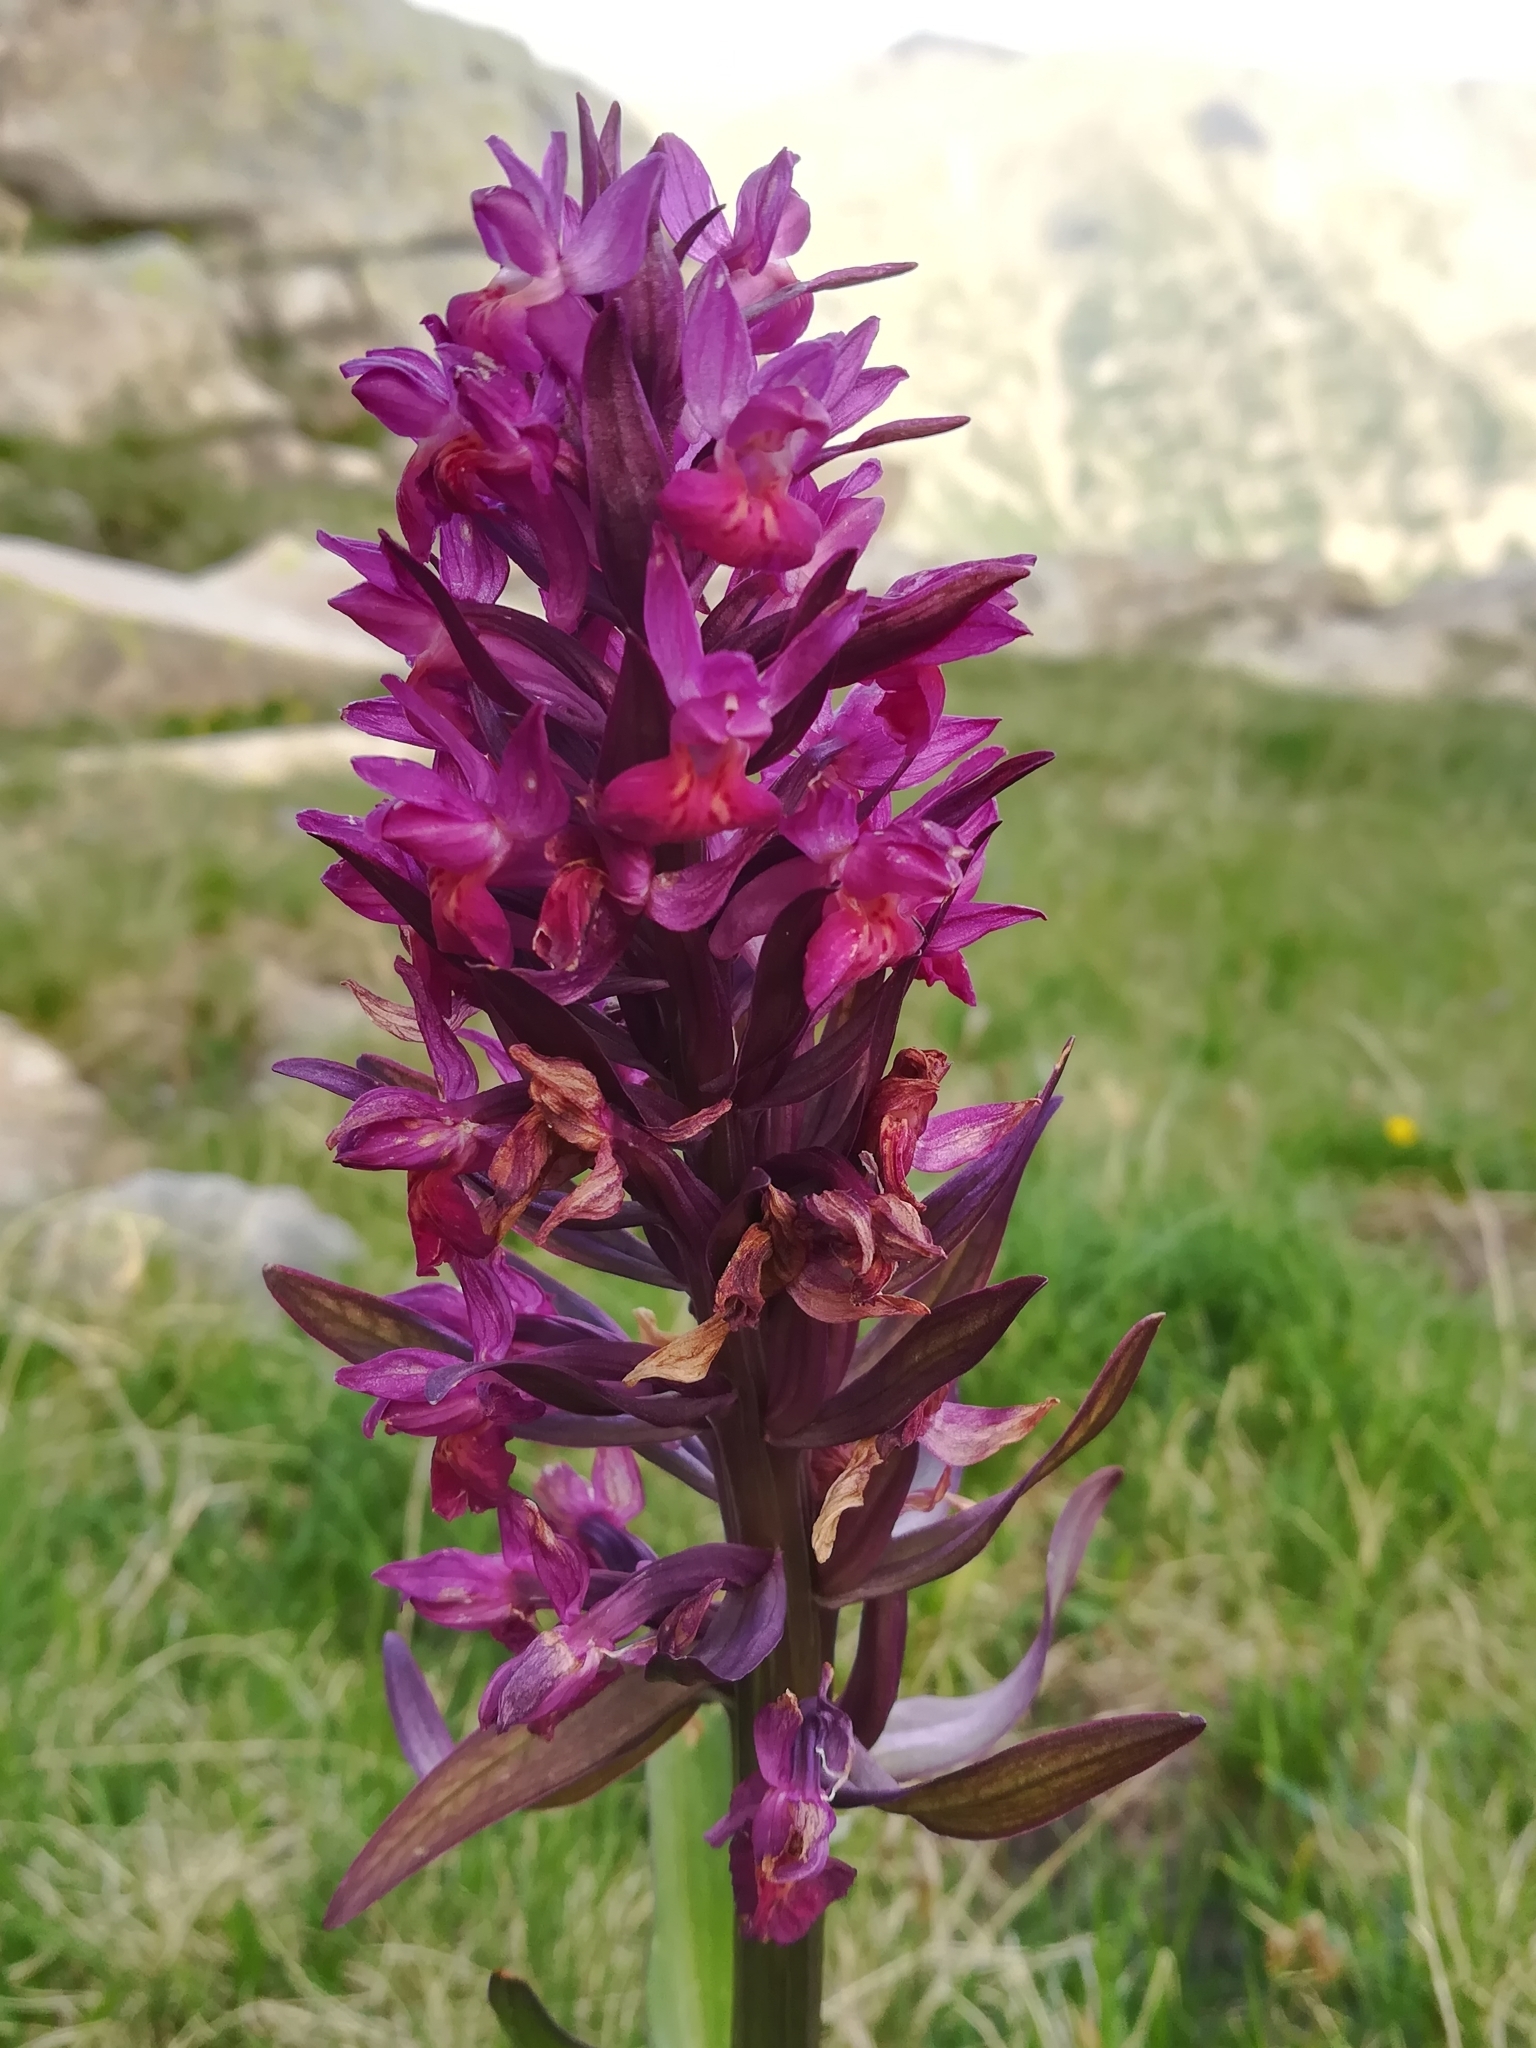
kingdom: Plantae
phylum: Tracheophyta
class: Liliopsida
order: Asparagales
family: Orchidaceae
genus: Dactylorhiza
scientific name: Dactylorhiza sambucina
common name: Elder-flowered orchid
